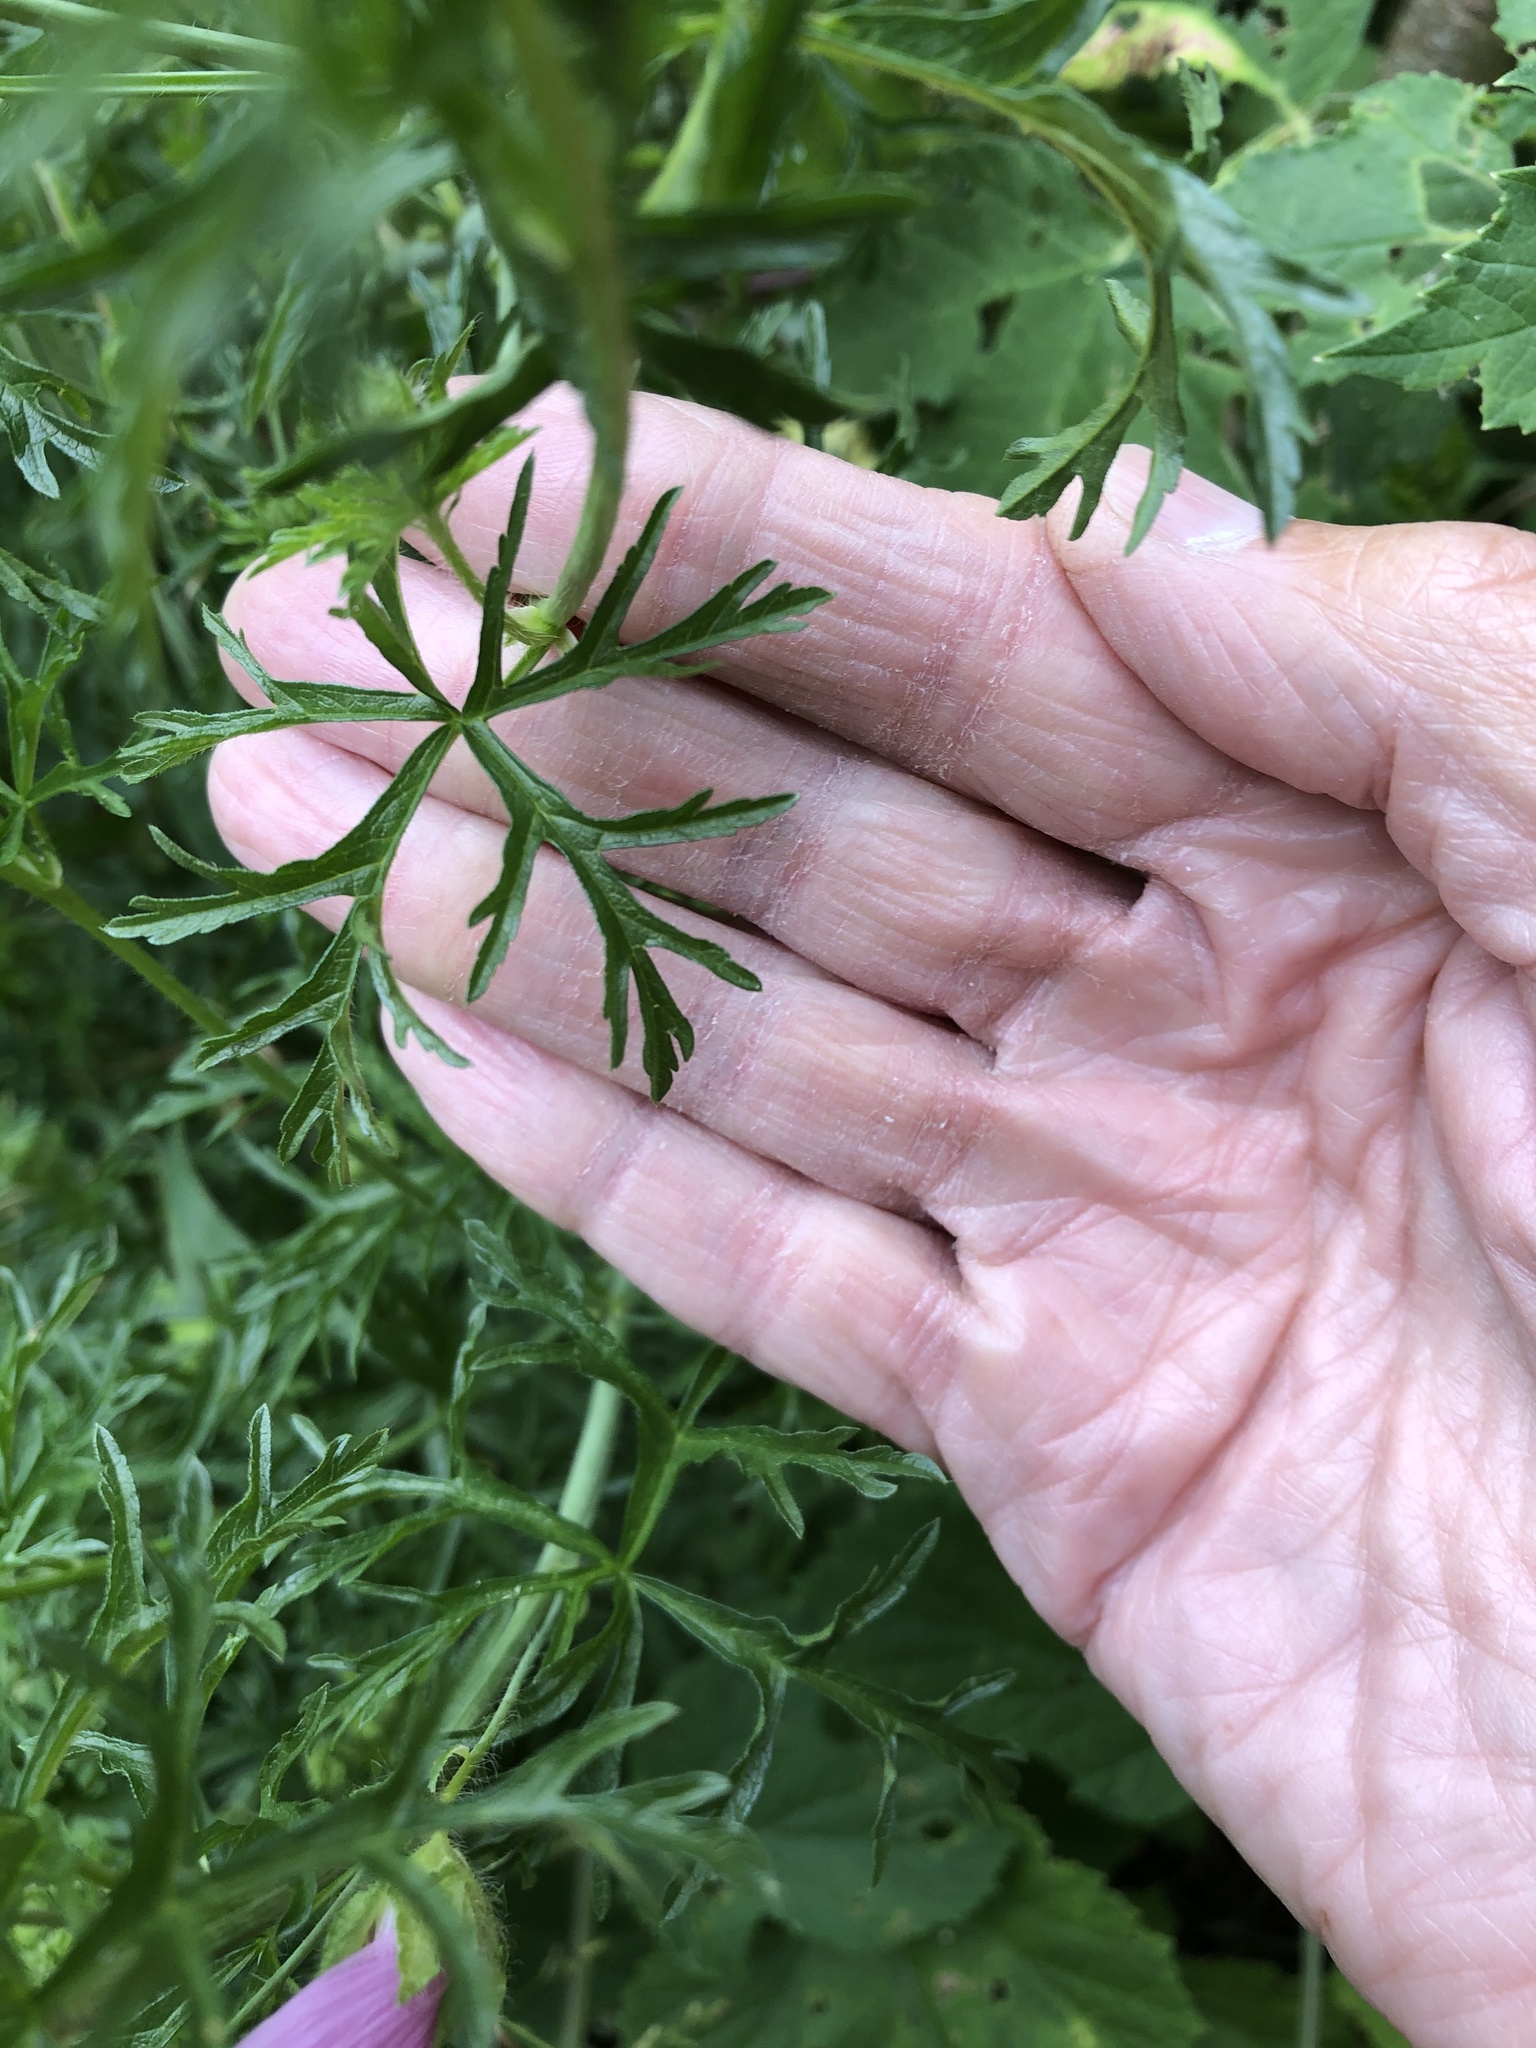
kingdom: Plantae
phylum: Tracheophyta
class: Magnoliopsida
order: Malvales
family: Malvaceae
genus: Malva
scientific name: Malva moschata
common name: Musk mallow
